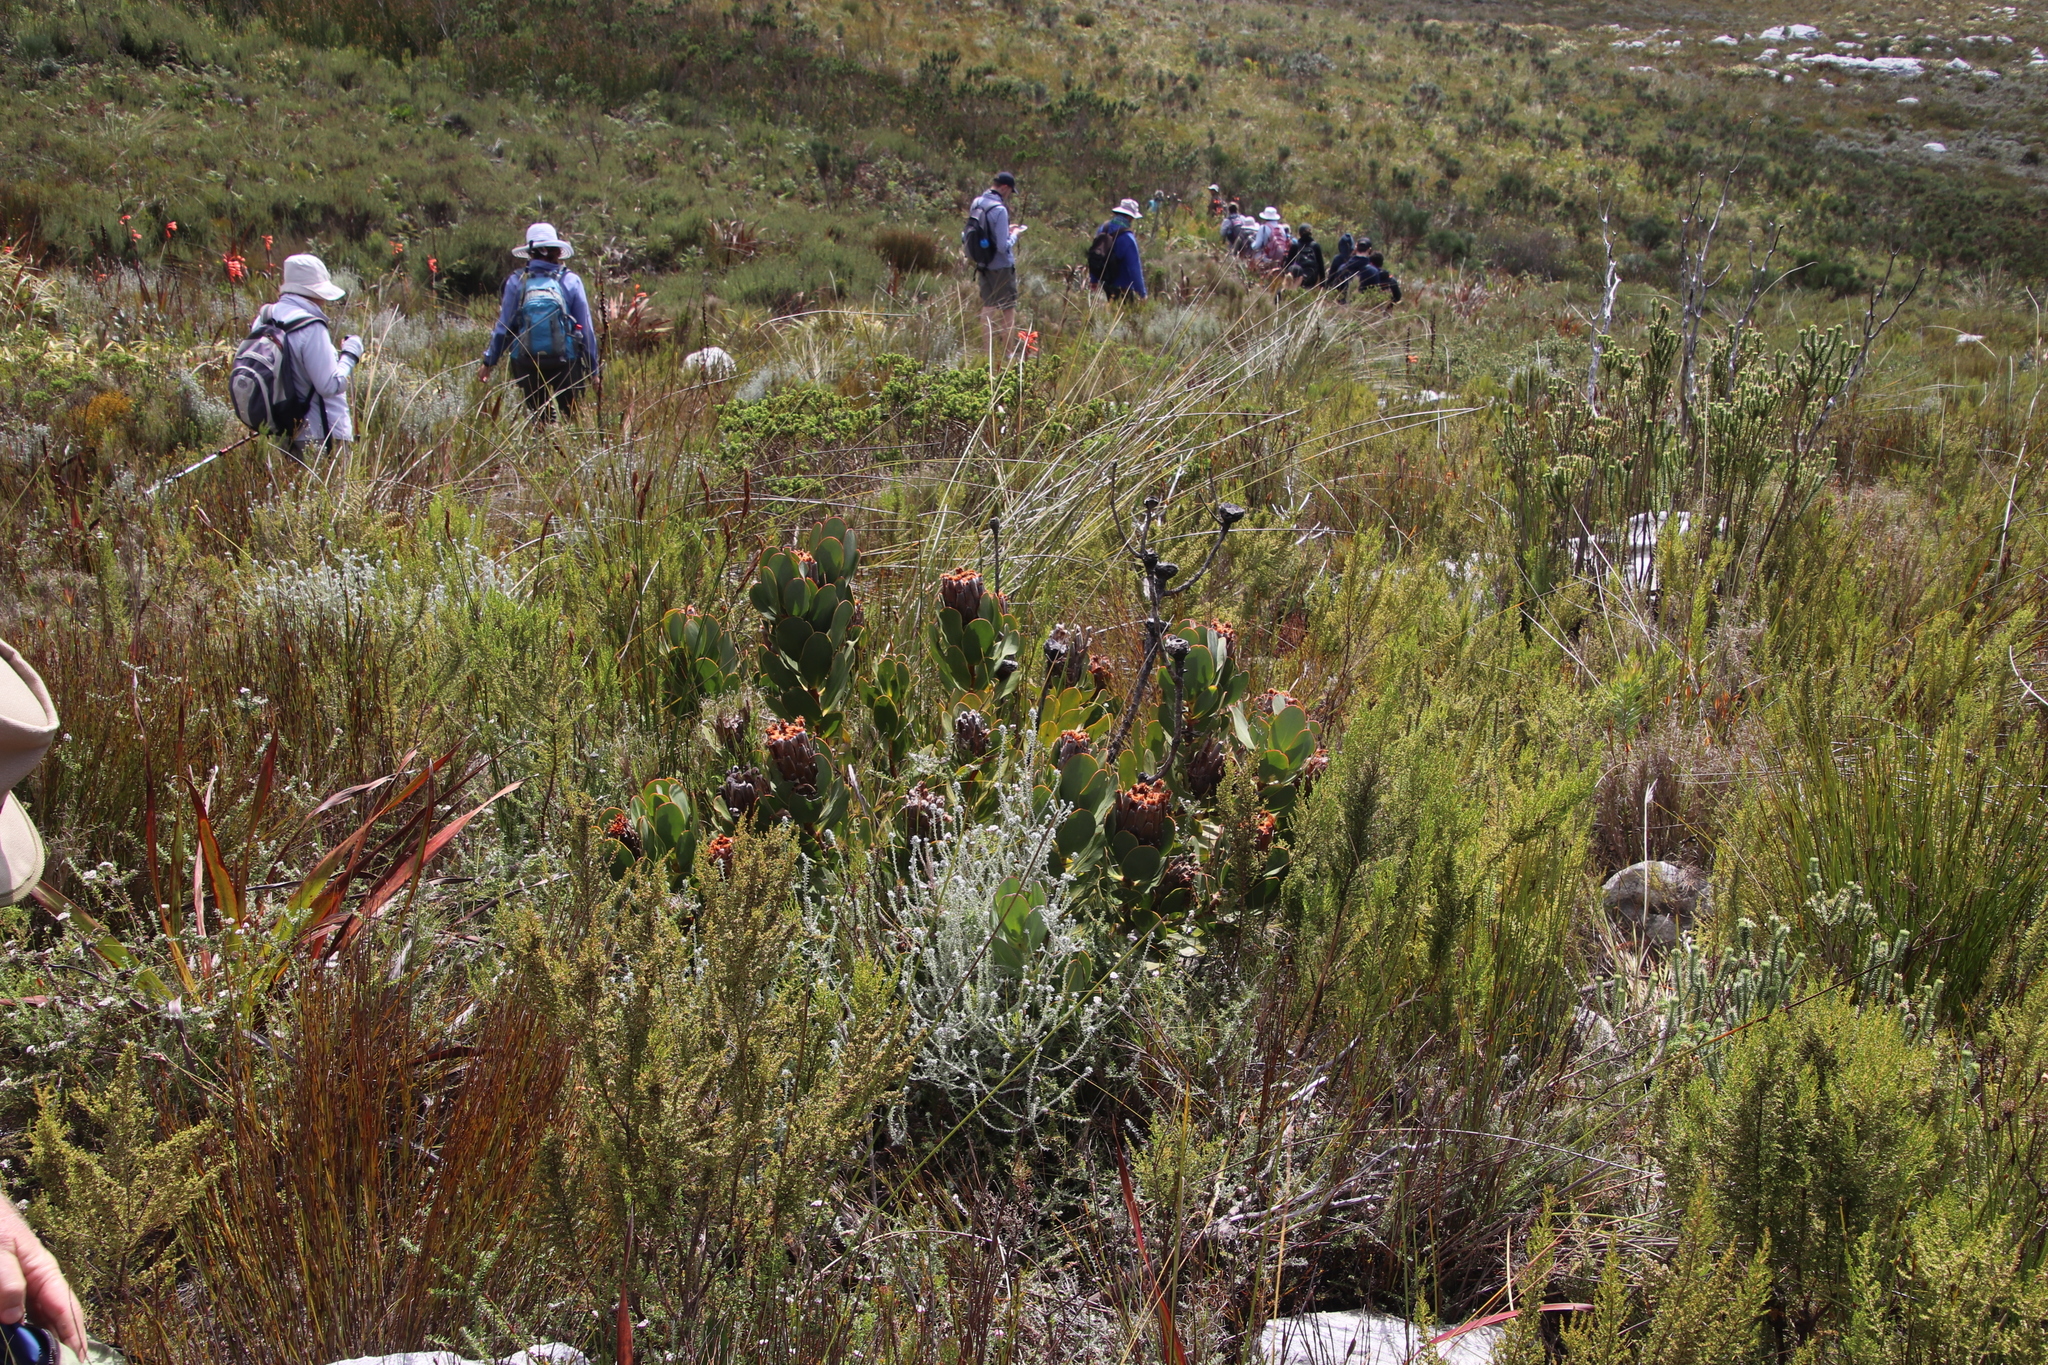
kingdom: Plantae
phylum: Tracheophyta
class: Magnoliopsida
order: Proteales
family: Proteaceae
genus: Protea
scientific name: Protea speciosa
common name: Brown-beard sugarbush
